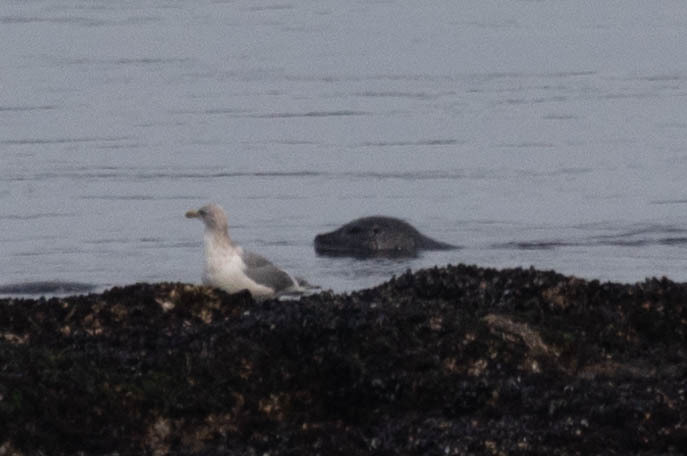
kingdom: Animalia
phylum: Chordata
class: Mammalia
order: Carnivora
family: Phocidae
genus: Phoca
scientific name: Phoca vitulina
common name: Harbor seal
